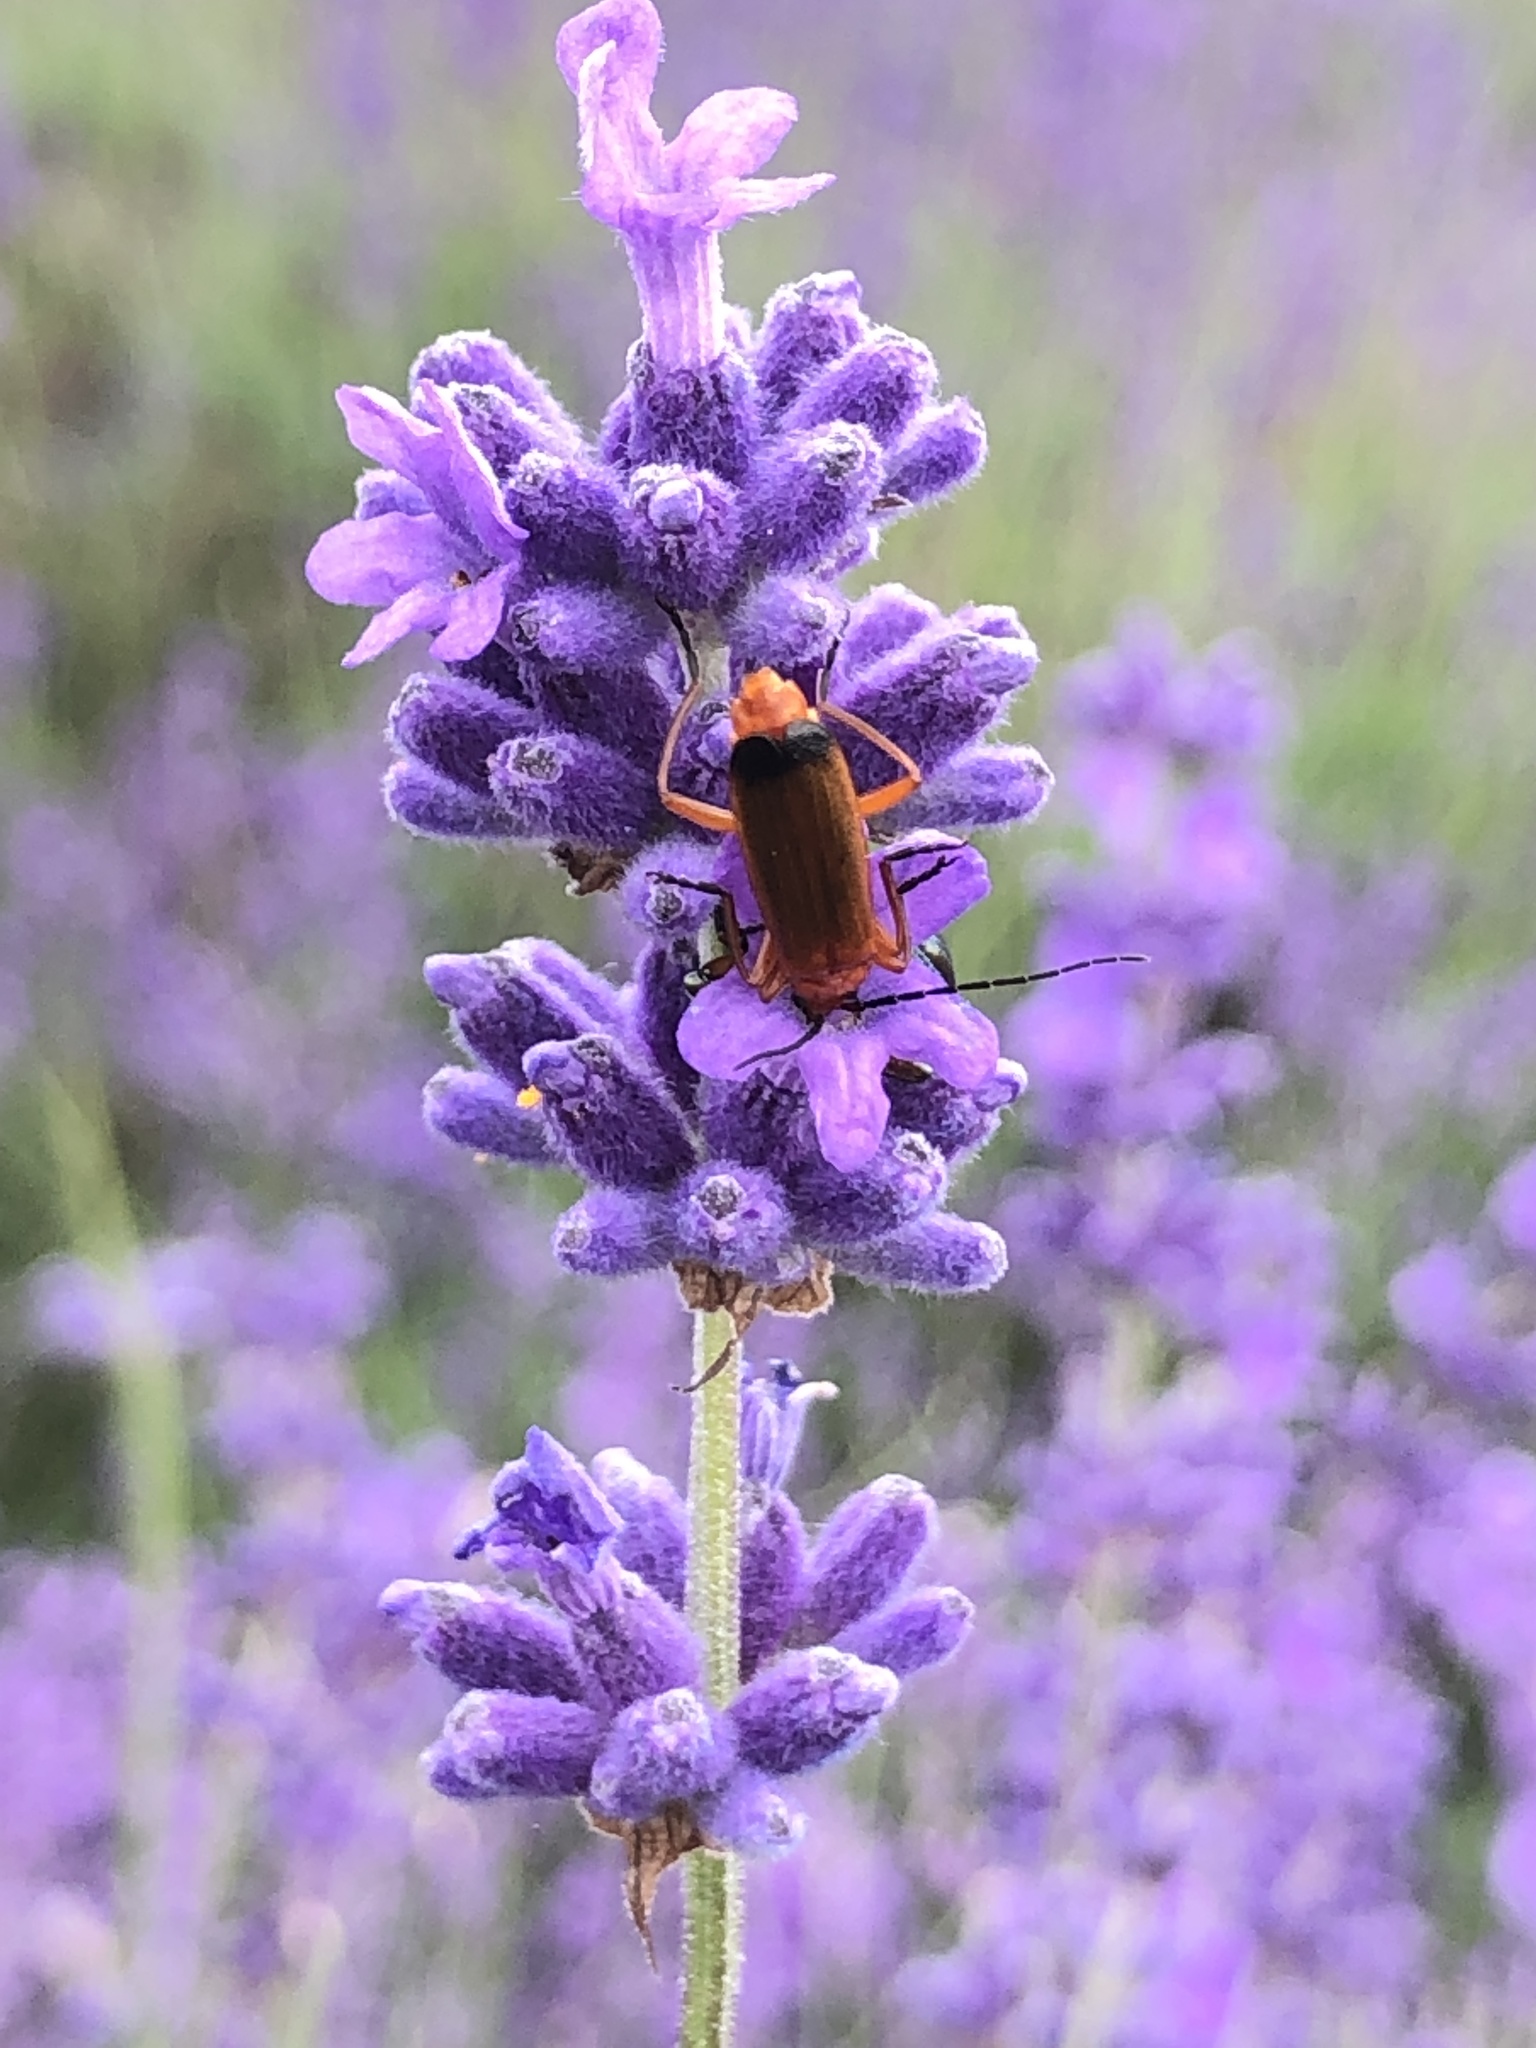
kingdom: Animalia
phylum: Arthropoda
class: Insecta
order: Coleoptera
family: Cantharidae
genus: Rhagonycha
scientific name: Rhagonycha fulva
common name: Common red soldier beetle
